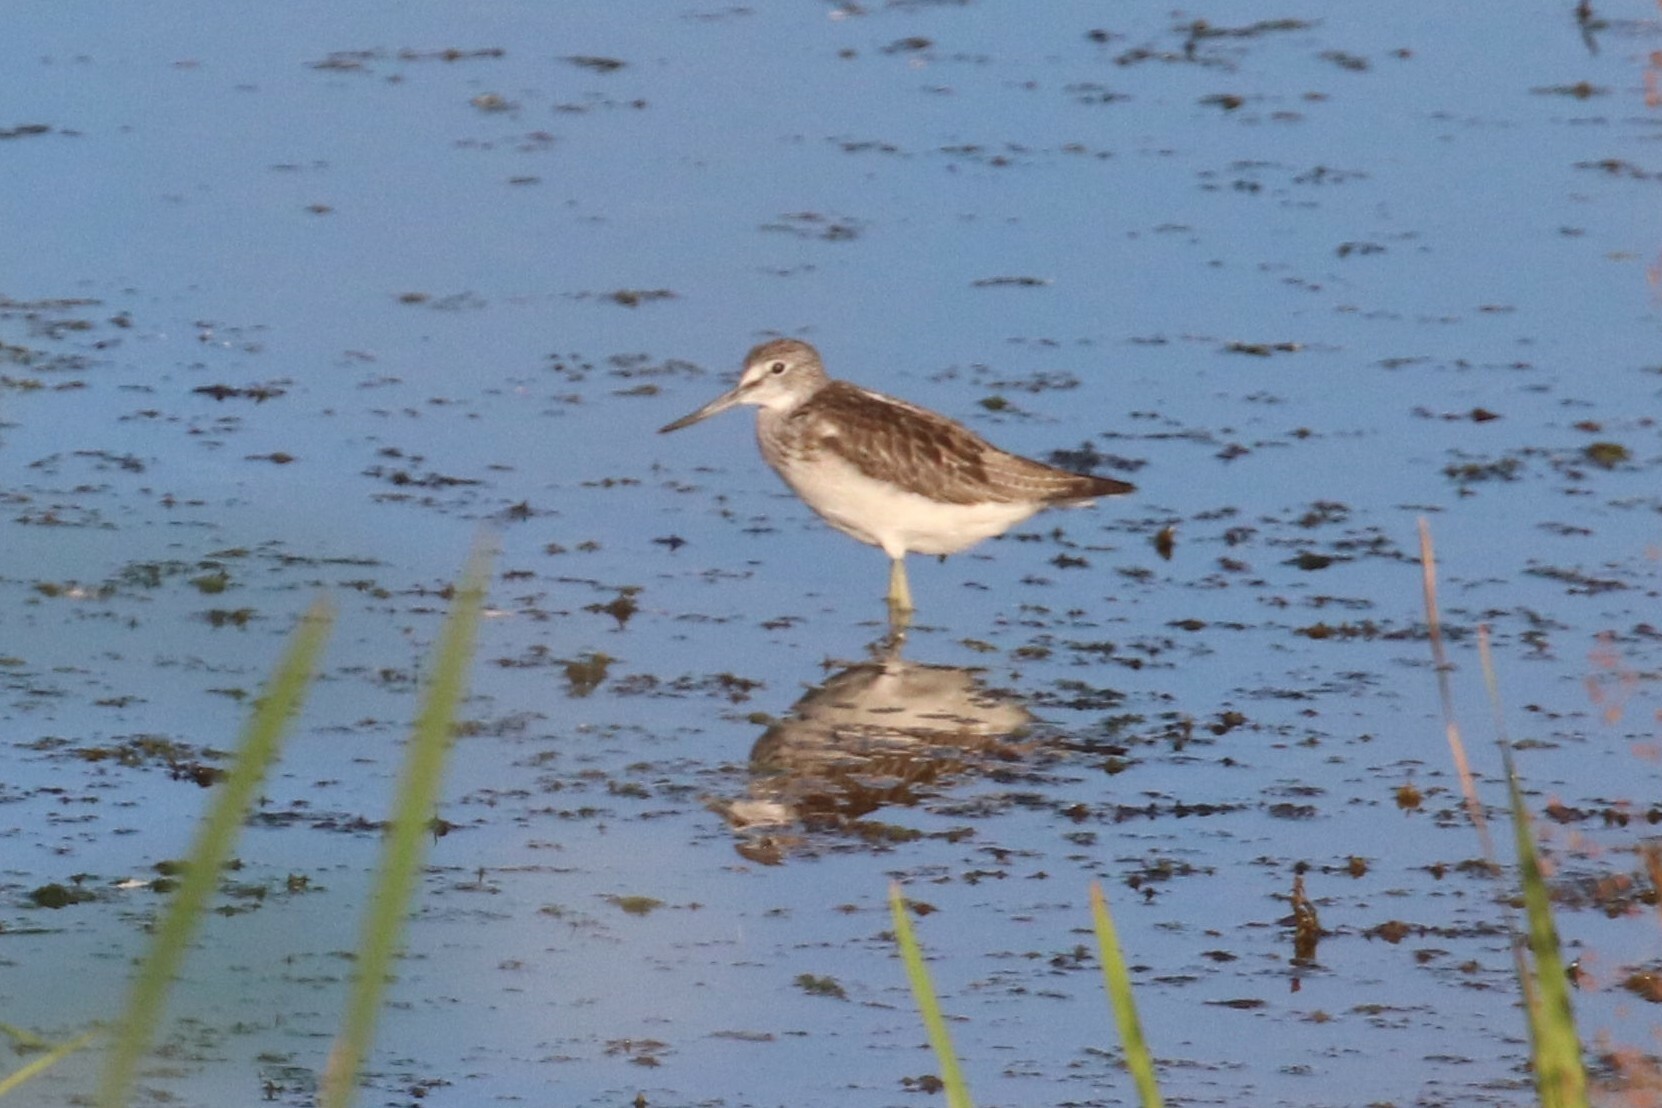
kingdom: Animalia
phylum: Chordata
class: Aves
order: Charadriiformes
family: Scolopacidae
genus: Tringa
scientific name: Tringa nebularia
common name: Common greenshank
